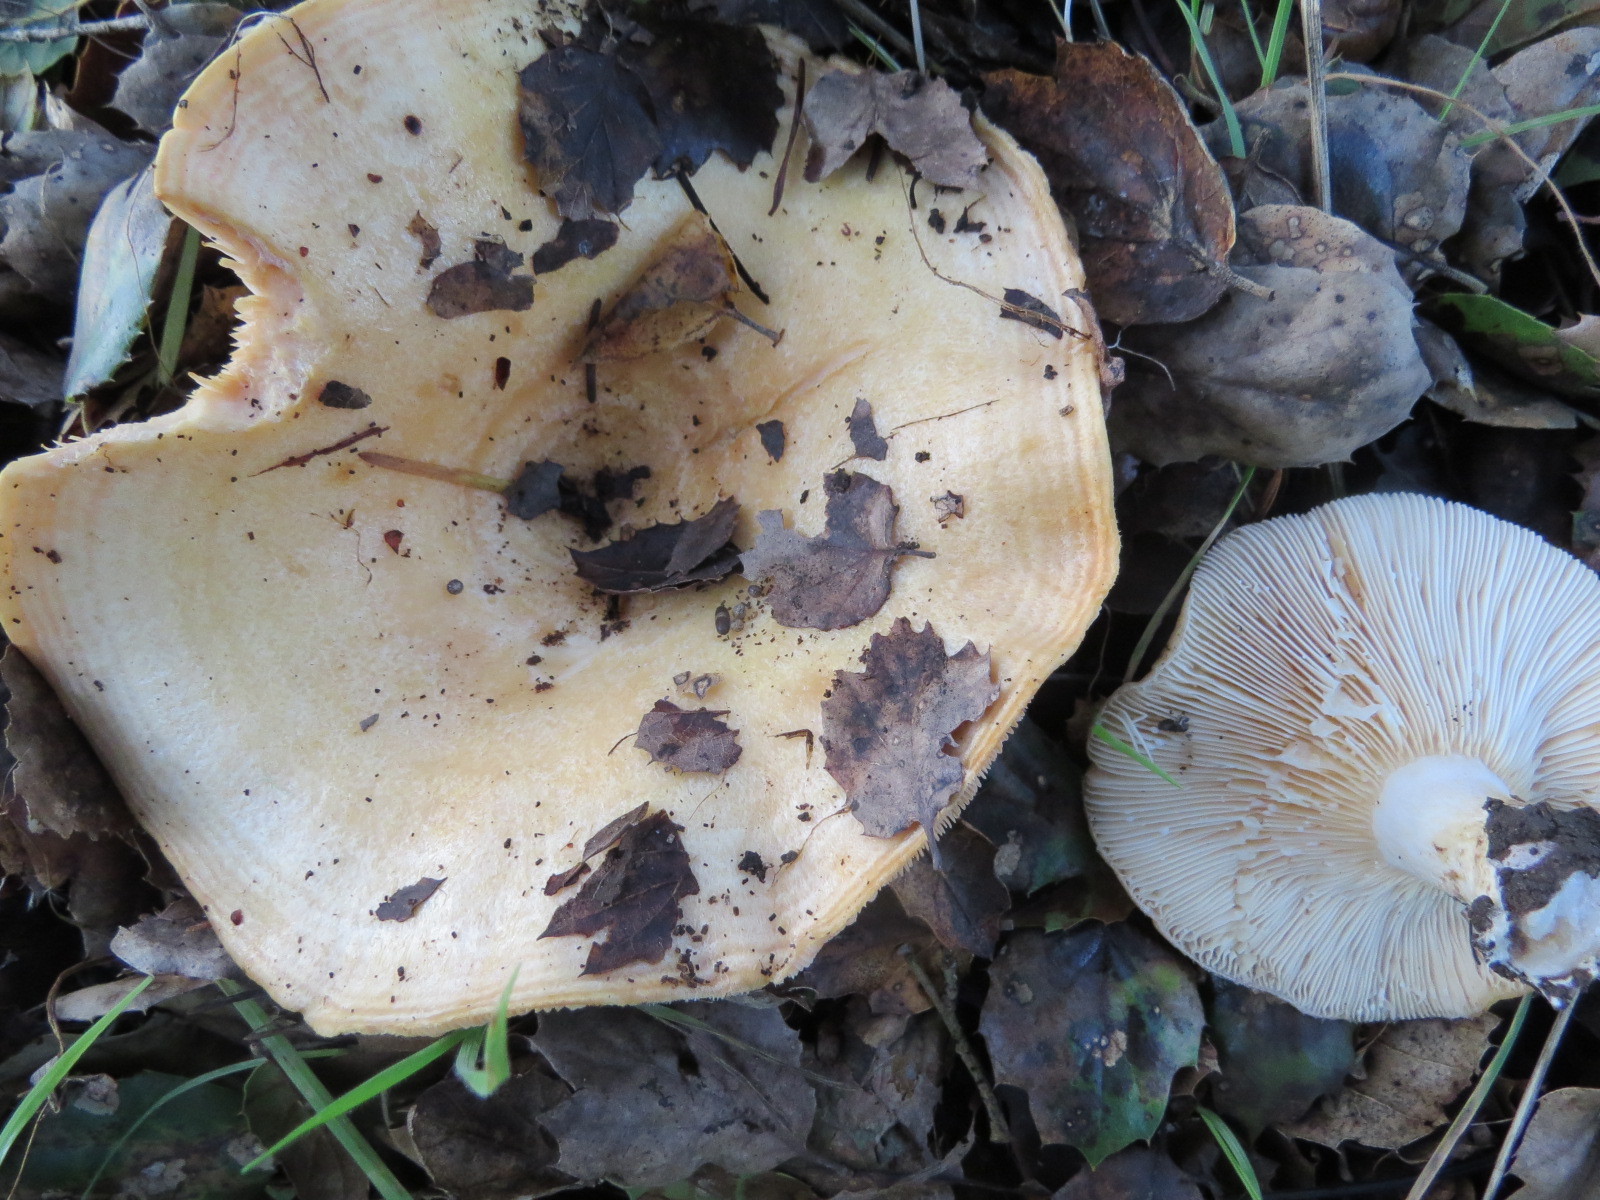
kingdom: Fungi
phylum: Basidiomycota
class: Agaricomycetes
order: Russulales
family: Russulaceae
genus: Lactarius
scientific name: Lactarius alnicola
